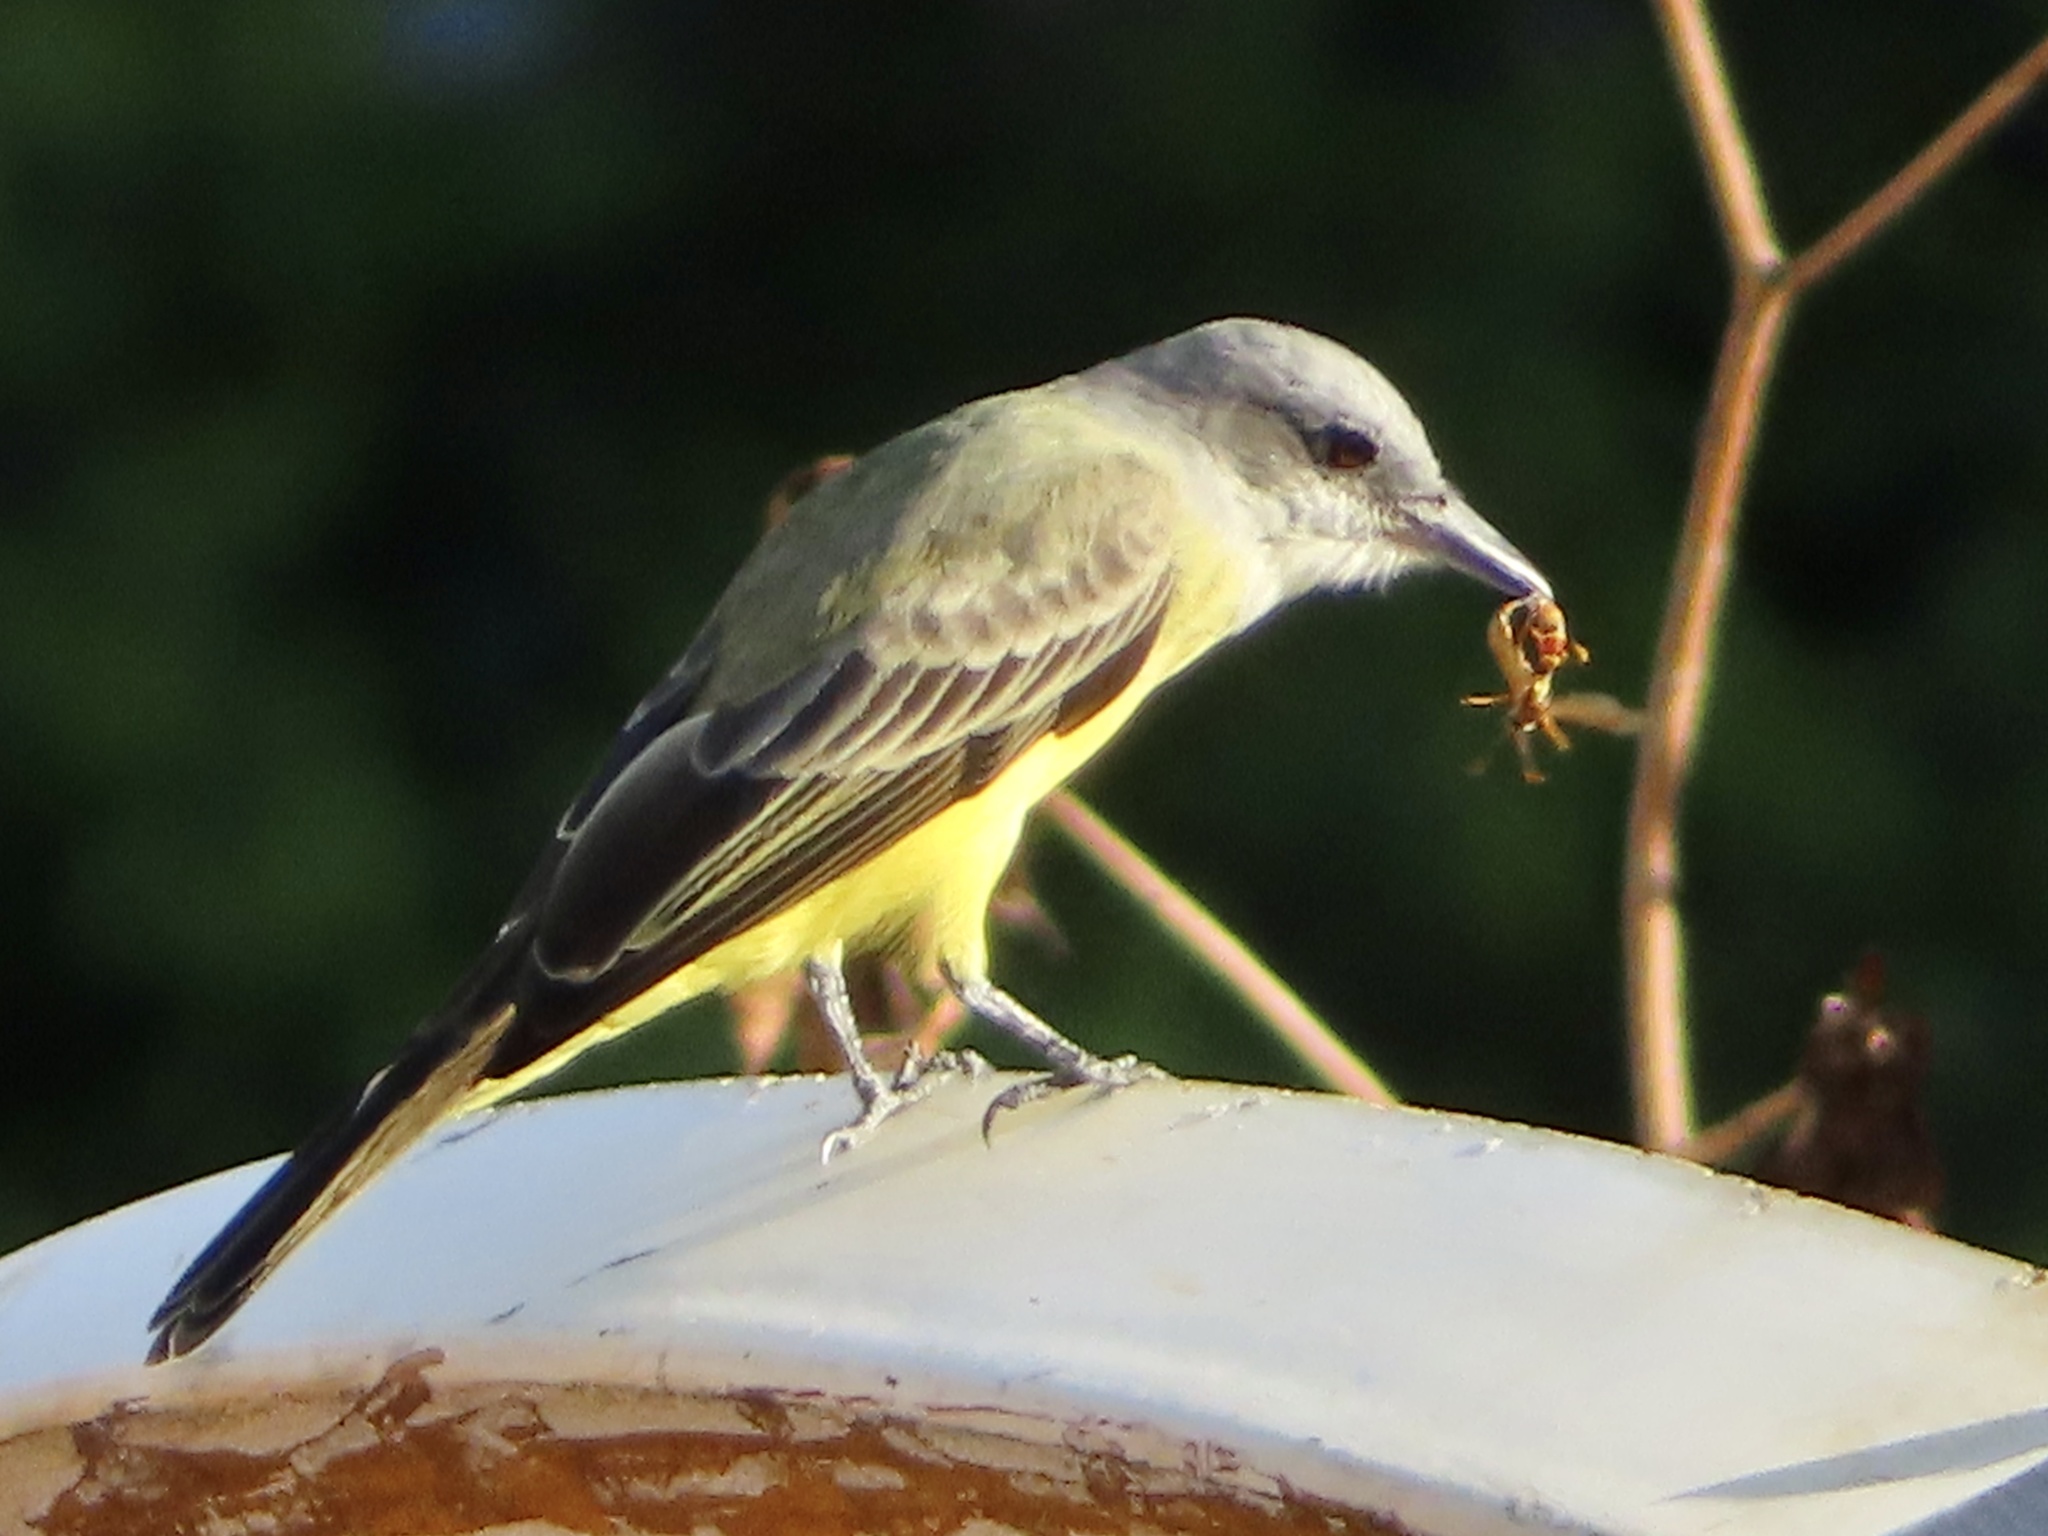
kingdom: Animalia
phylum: Chordata
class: Aves
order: Passeriformes
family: Tyrannidae
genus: Tyrannus
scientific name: Tyrannus melancholicus
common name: Tropical kingbird
